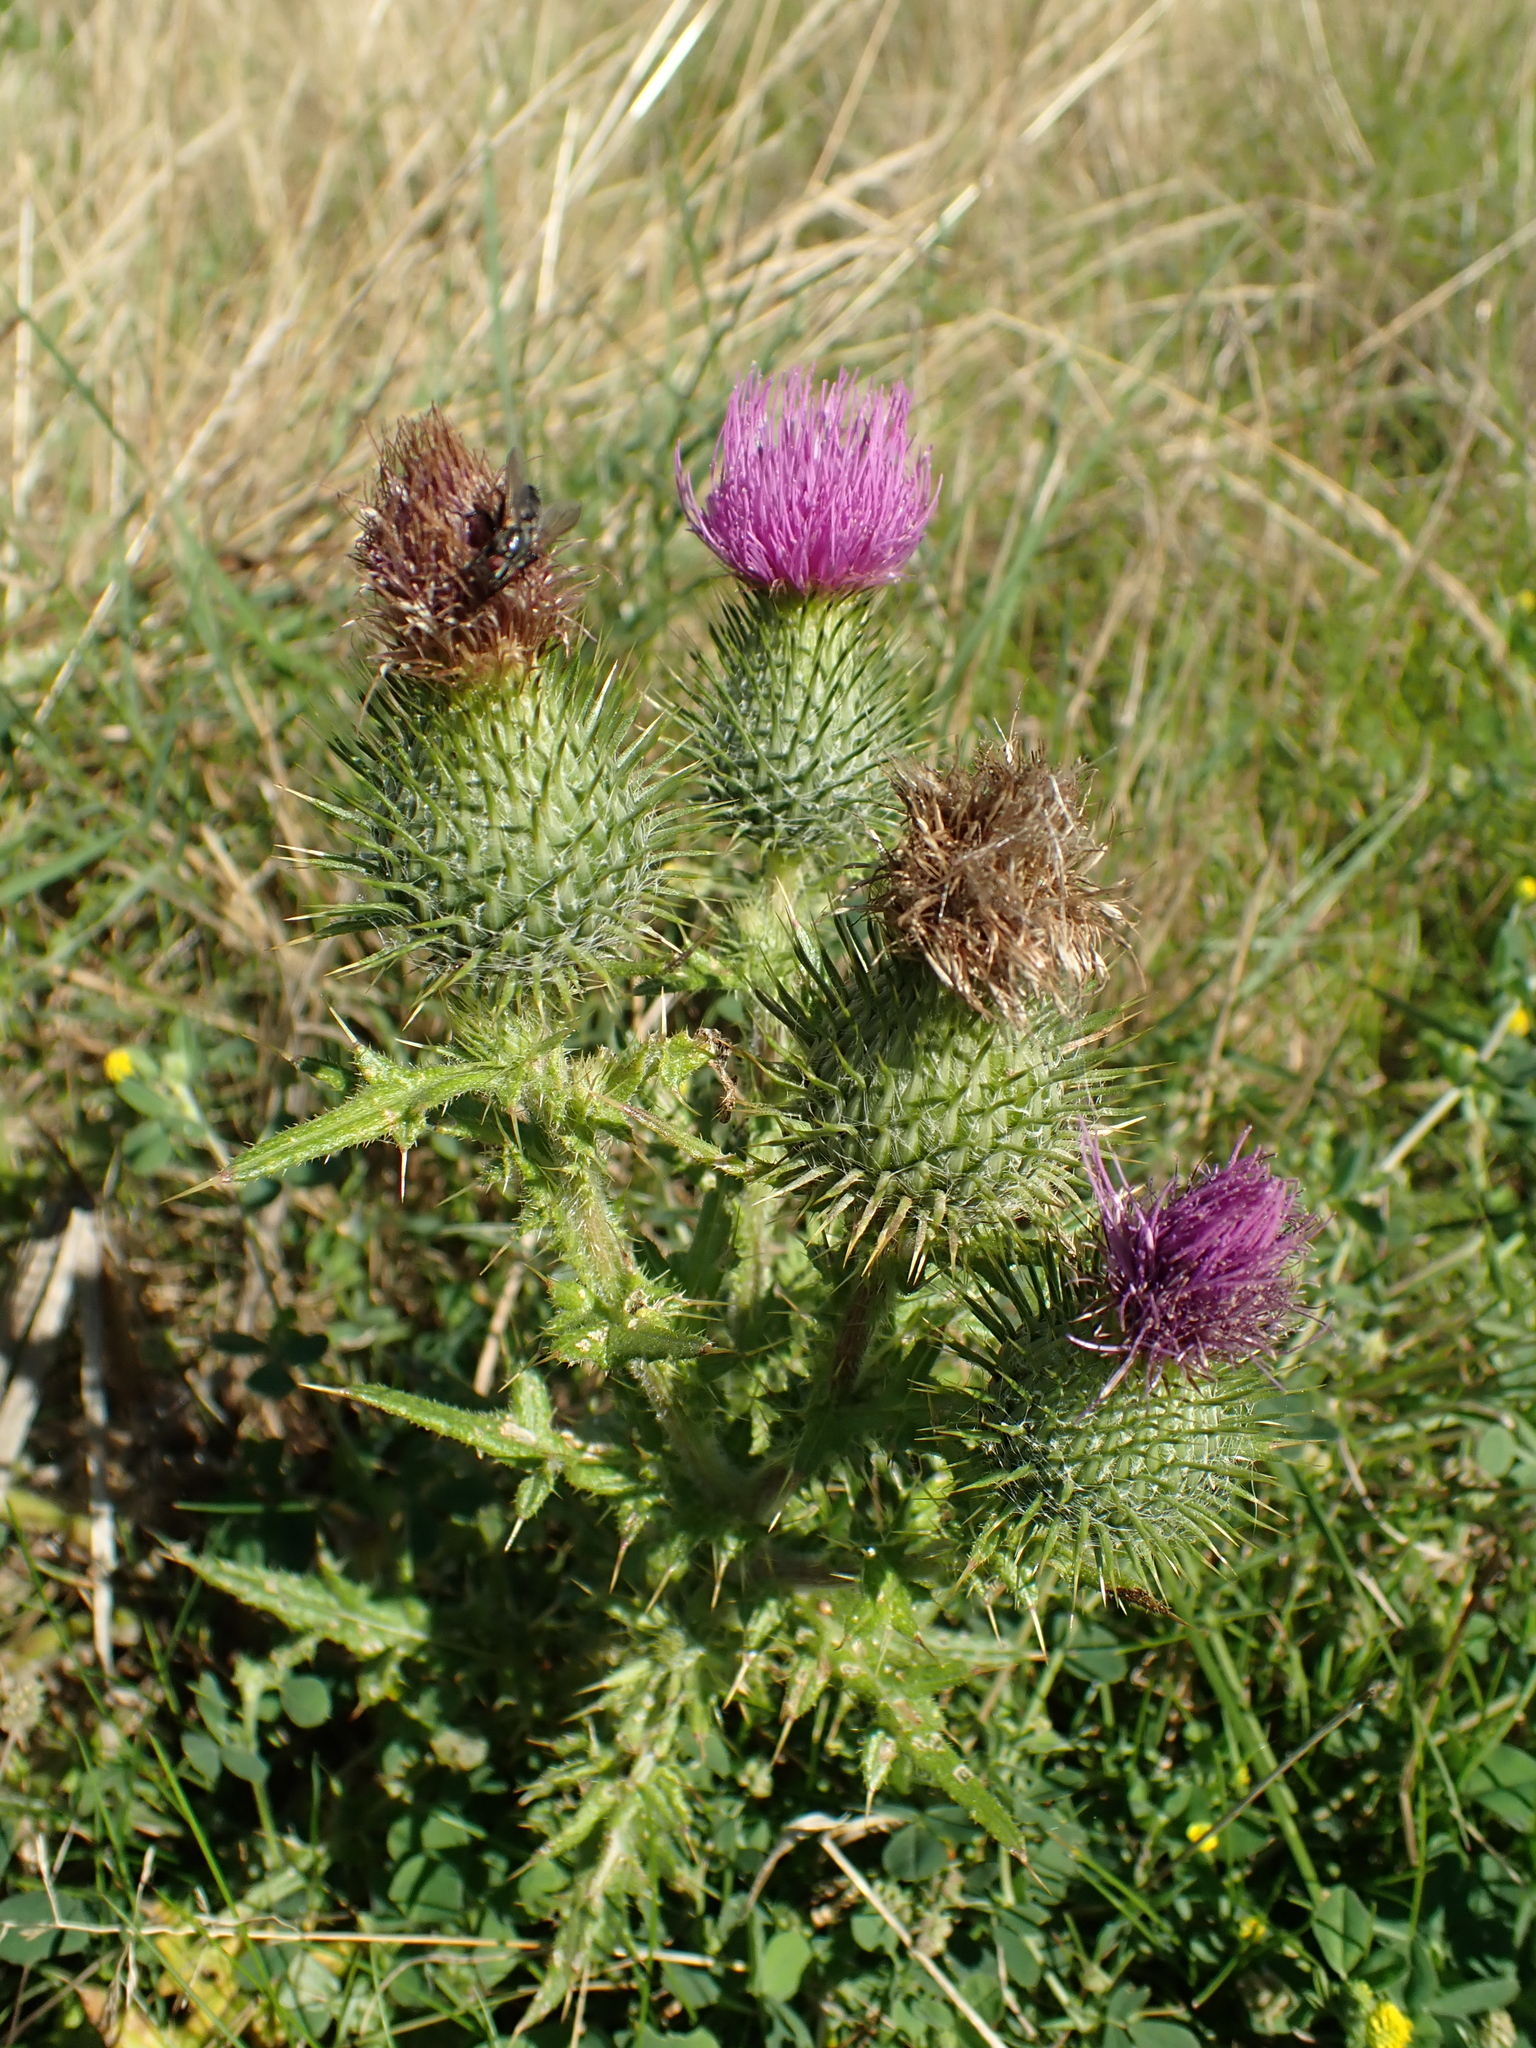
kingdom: Plantae
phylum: Tracheophyta
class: Magnoliopsida
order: Asterales
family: Asteraceae
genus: Cirsium
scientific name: Cirsium vulgare
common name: Bull thistle
